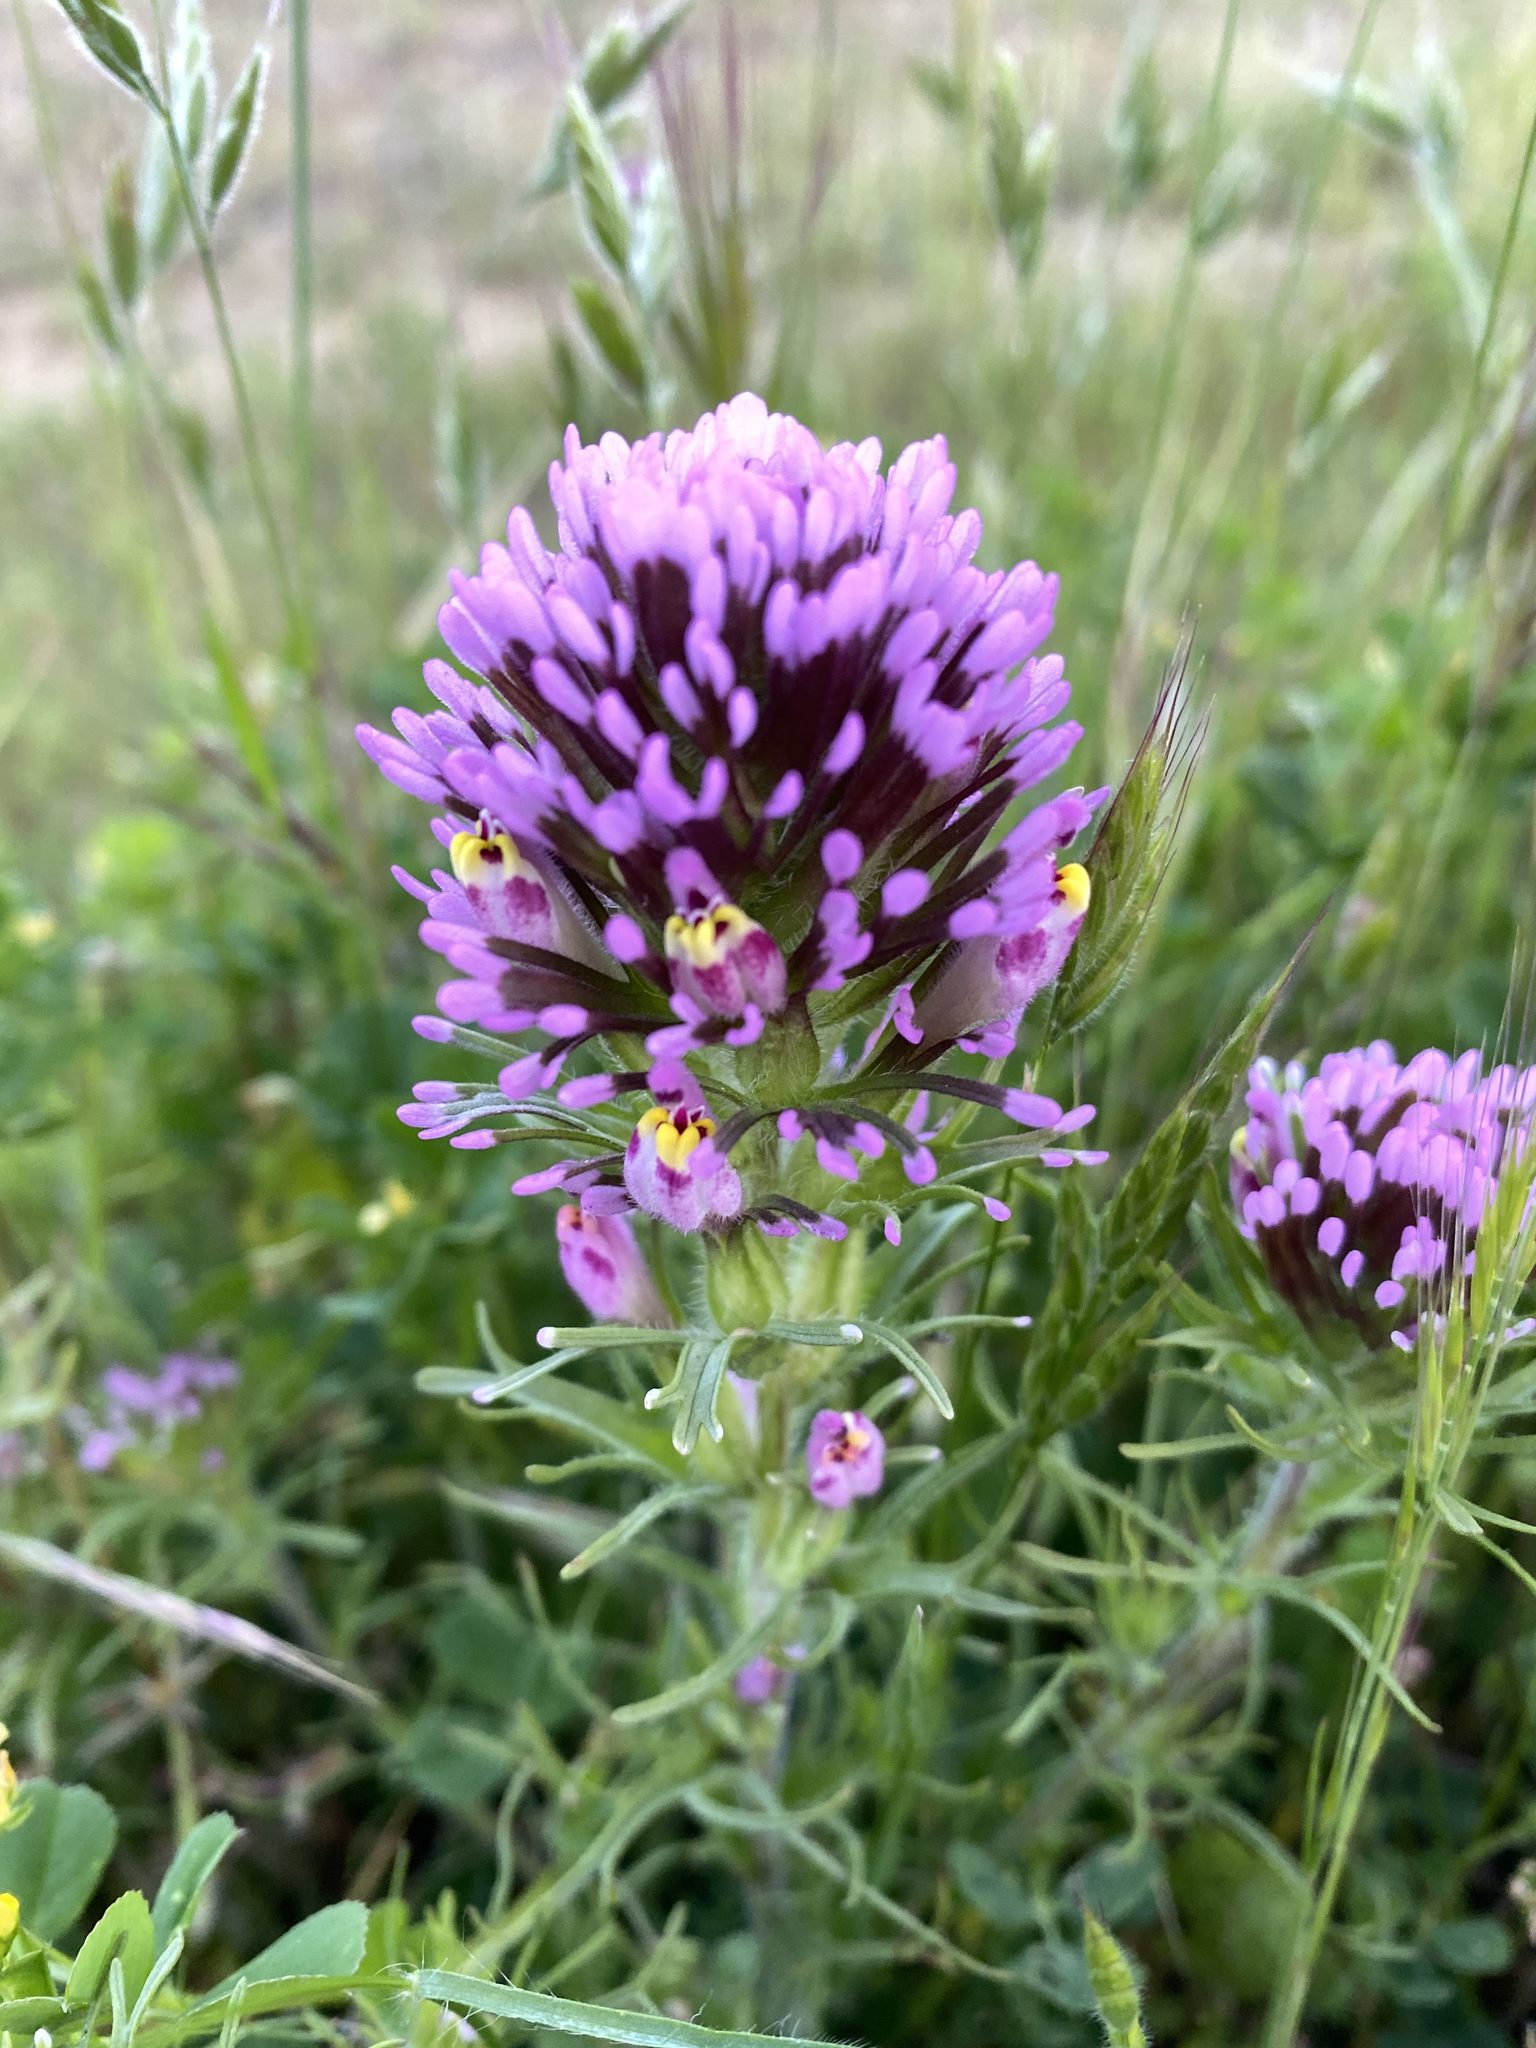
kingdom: Plantae
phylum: Tracheophyta
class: Magnoliopsida
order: Lamiales
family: Orobanchaceae
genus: Castilleja
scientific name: Castilleja exserta
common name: Purple owl-clover
